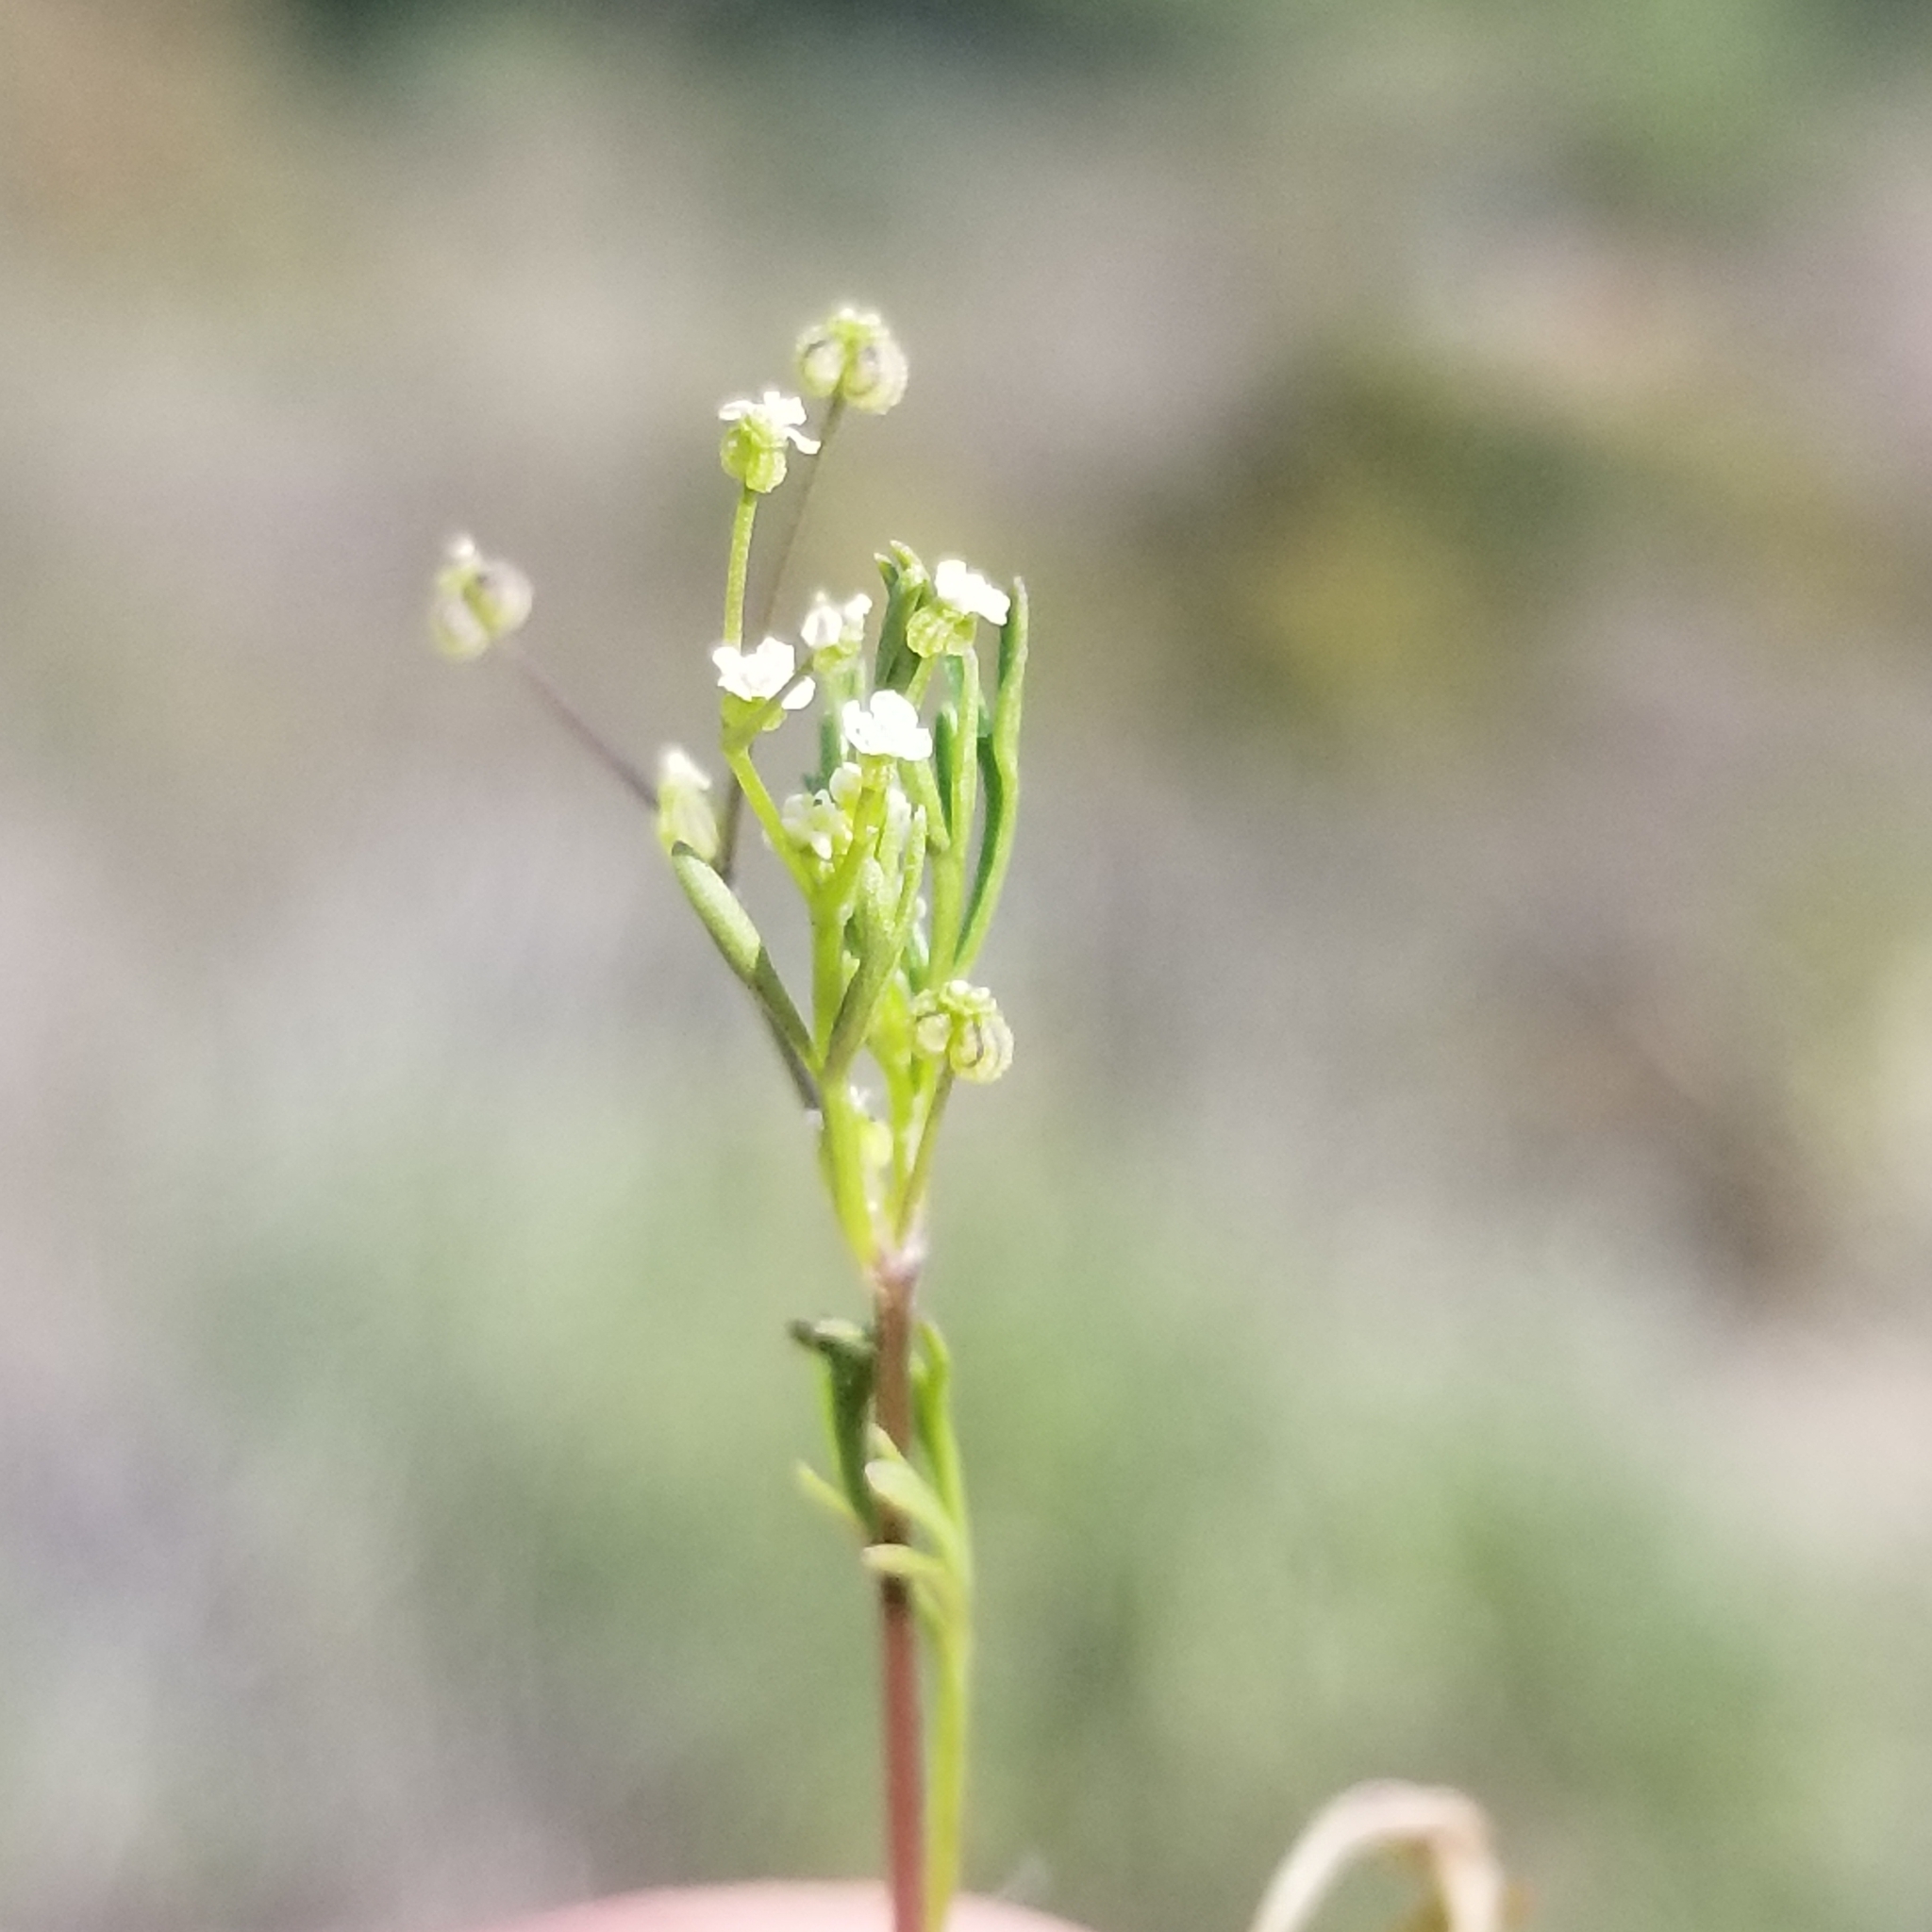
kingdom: Plantae
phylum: Tracheophyta
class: Magnoliopsida
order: Apiales
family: Apiaceae
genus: Apiastrum
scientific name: Apiastrum angustifolium
